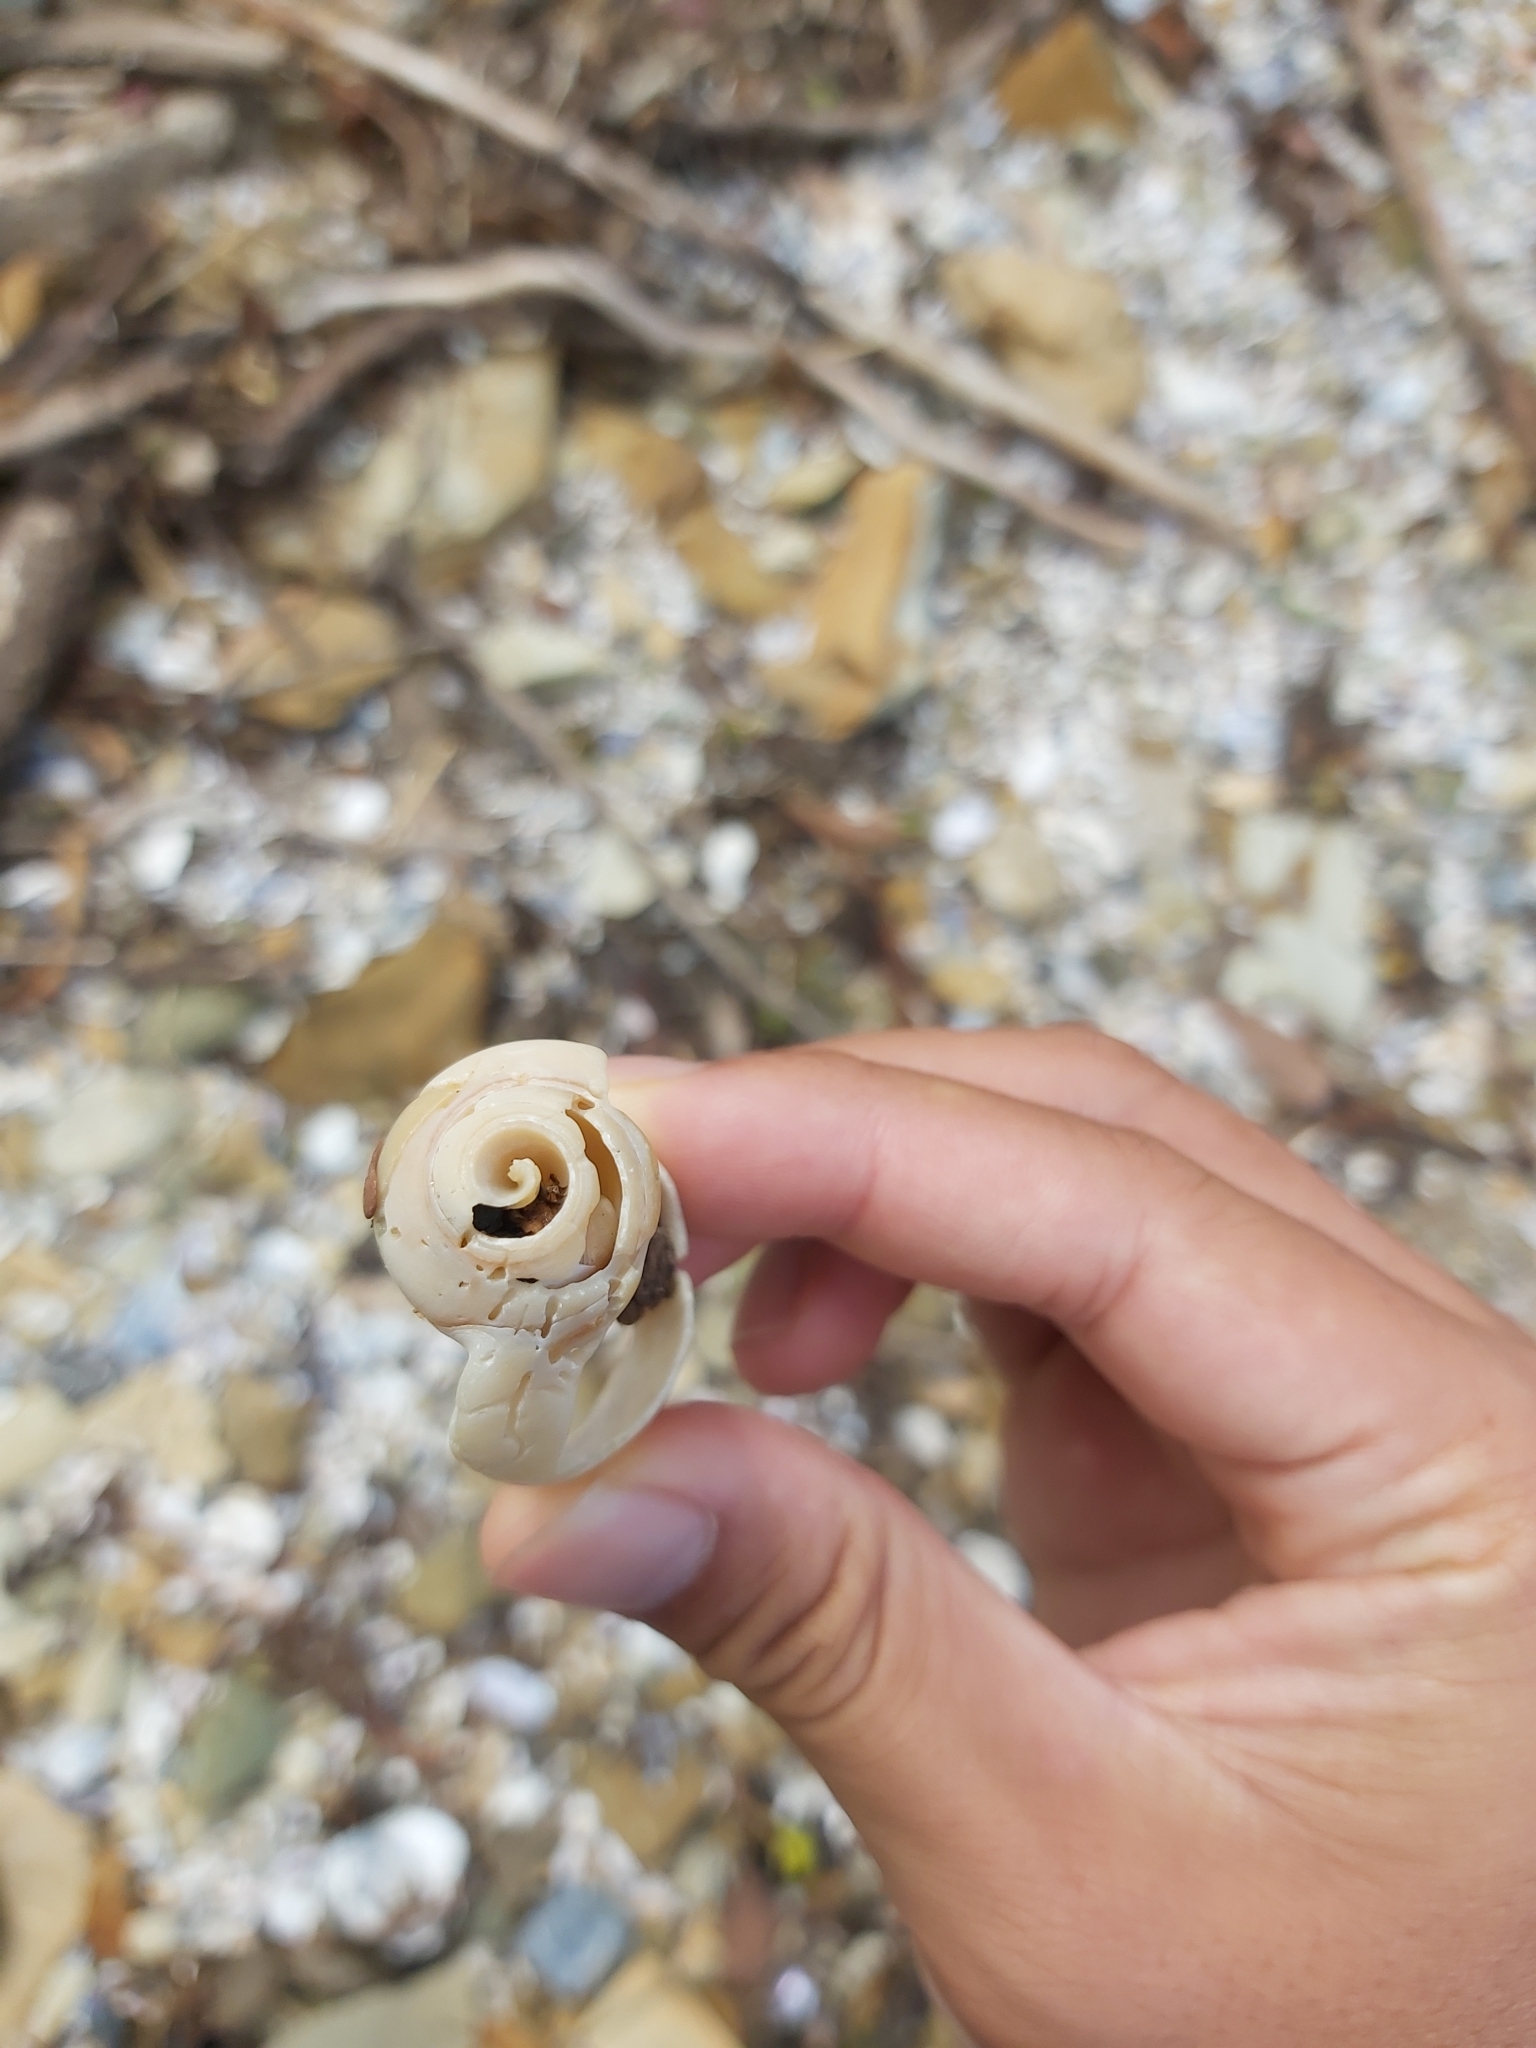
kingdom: Animalia
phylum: Mollusca
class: Gastropoda
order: Neogastropoda
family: Volutidae
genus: Amoria
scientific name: Amoria undulata
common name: Waved volute
